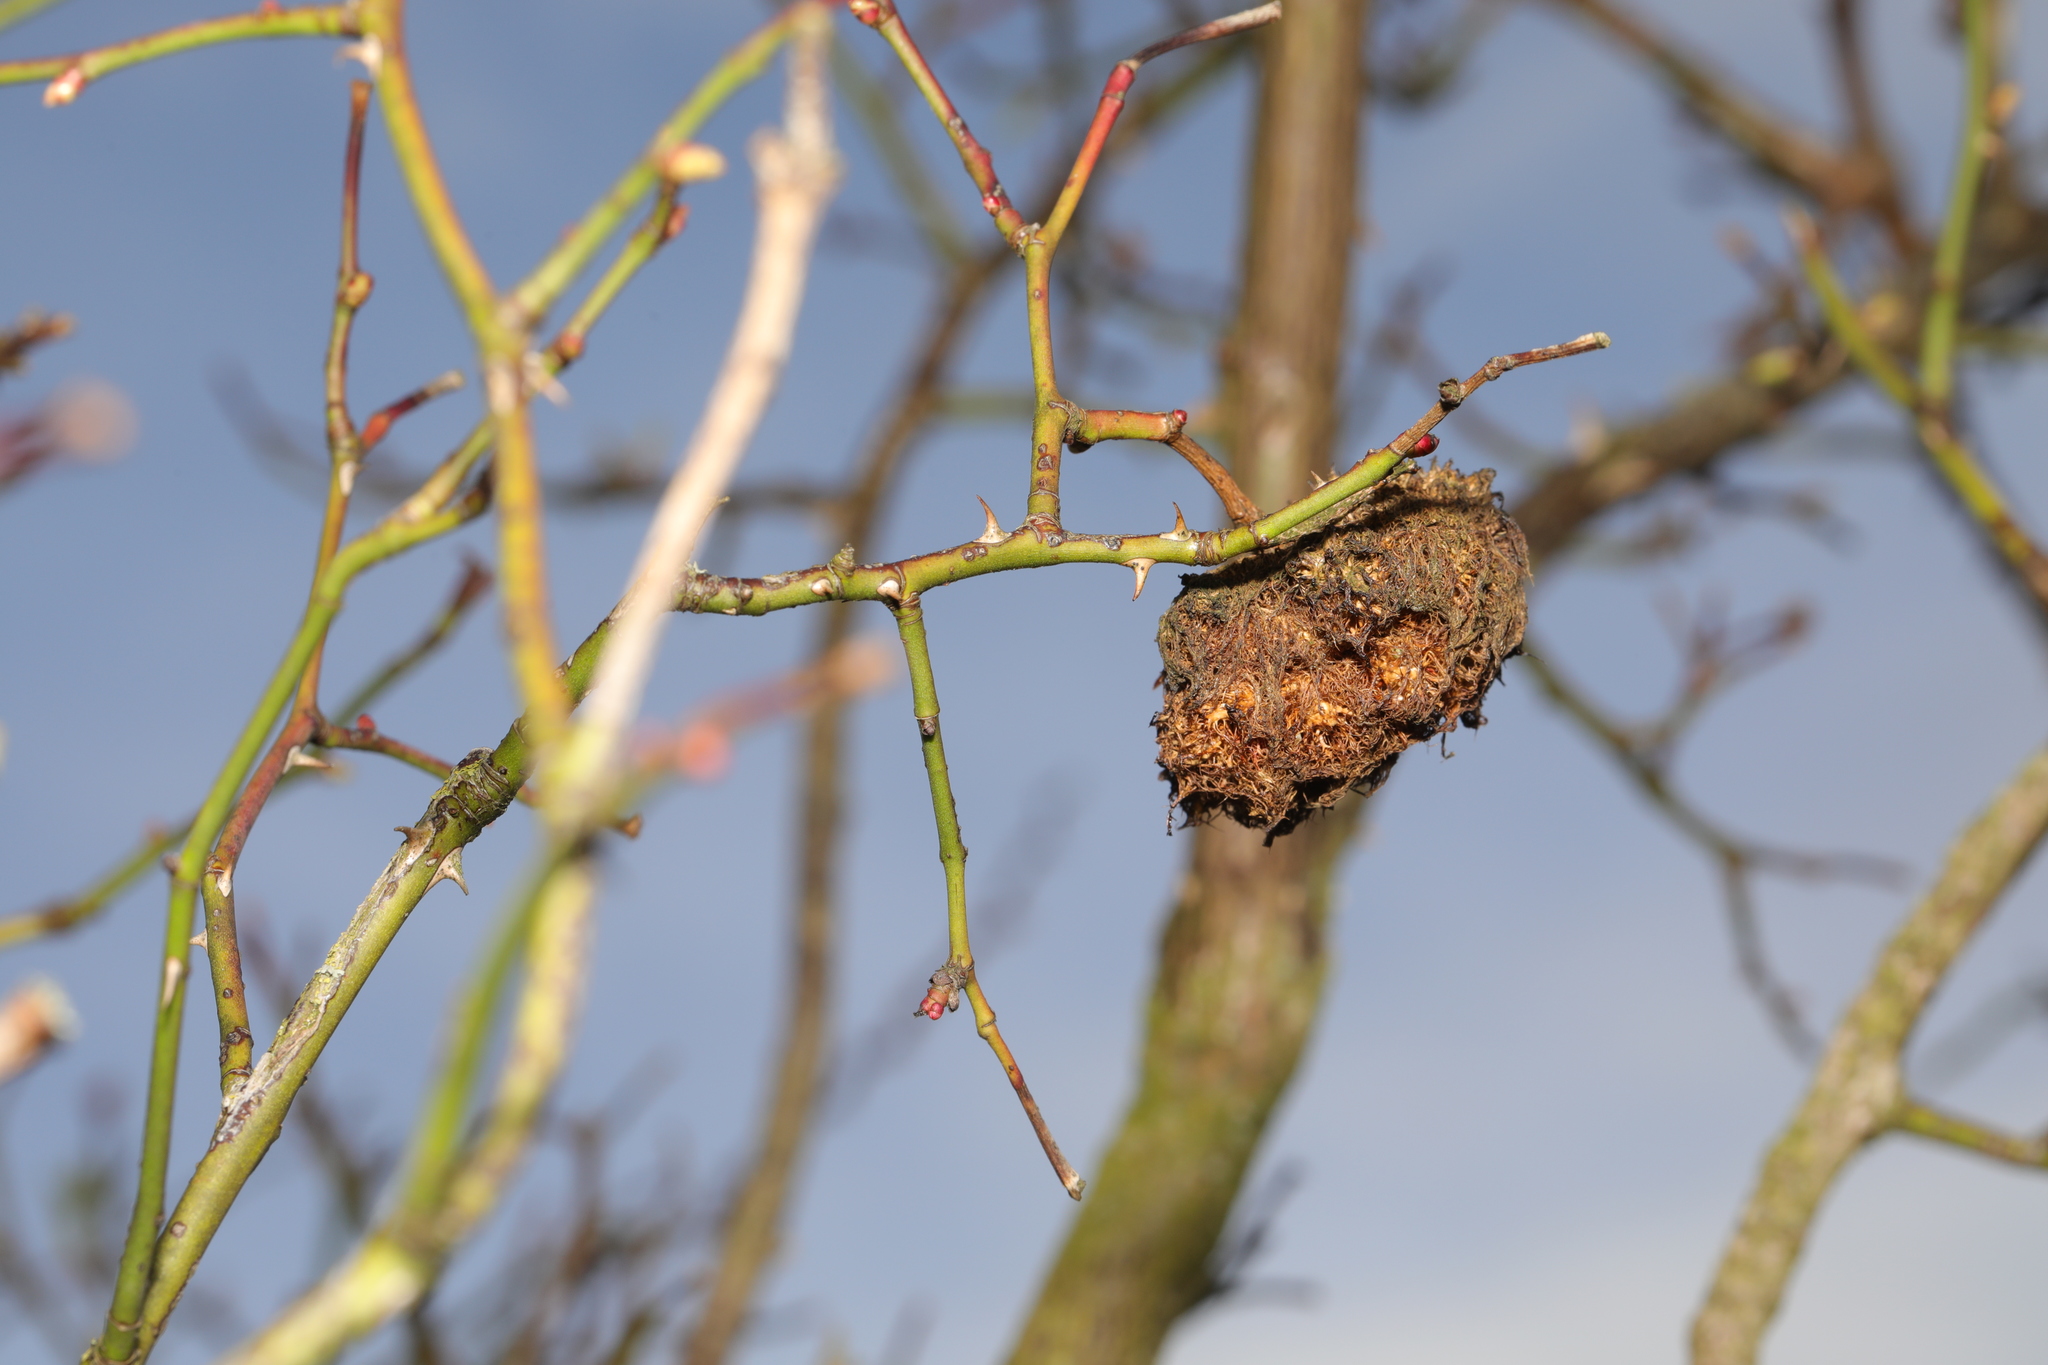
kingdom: Animalia
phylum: Arthropoda
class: Insecta
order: Hymenoptera
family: Cynipidae
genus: Diplolepis
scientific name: Diplolepis rosae
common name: Bedeguar gall
